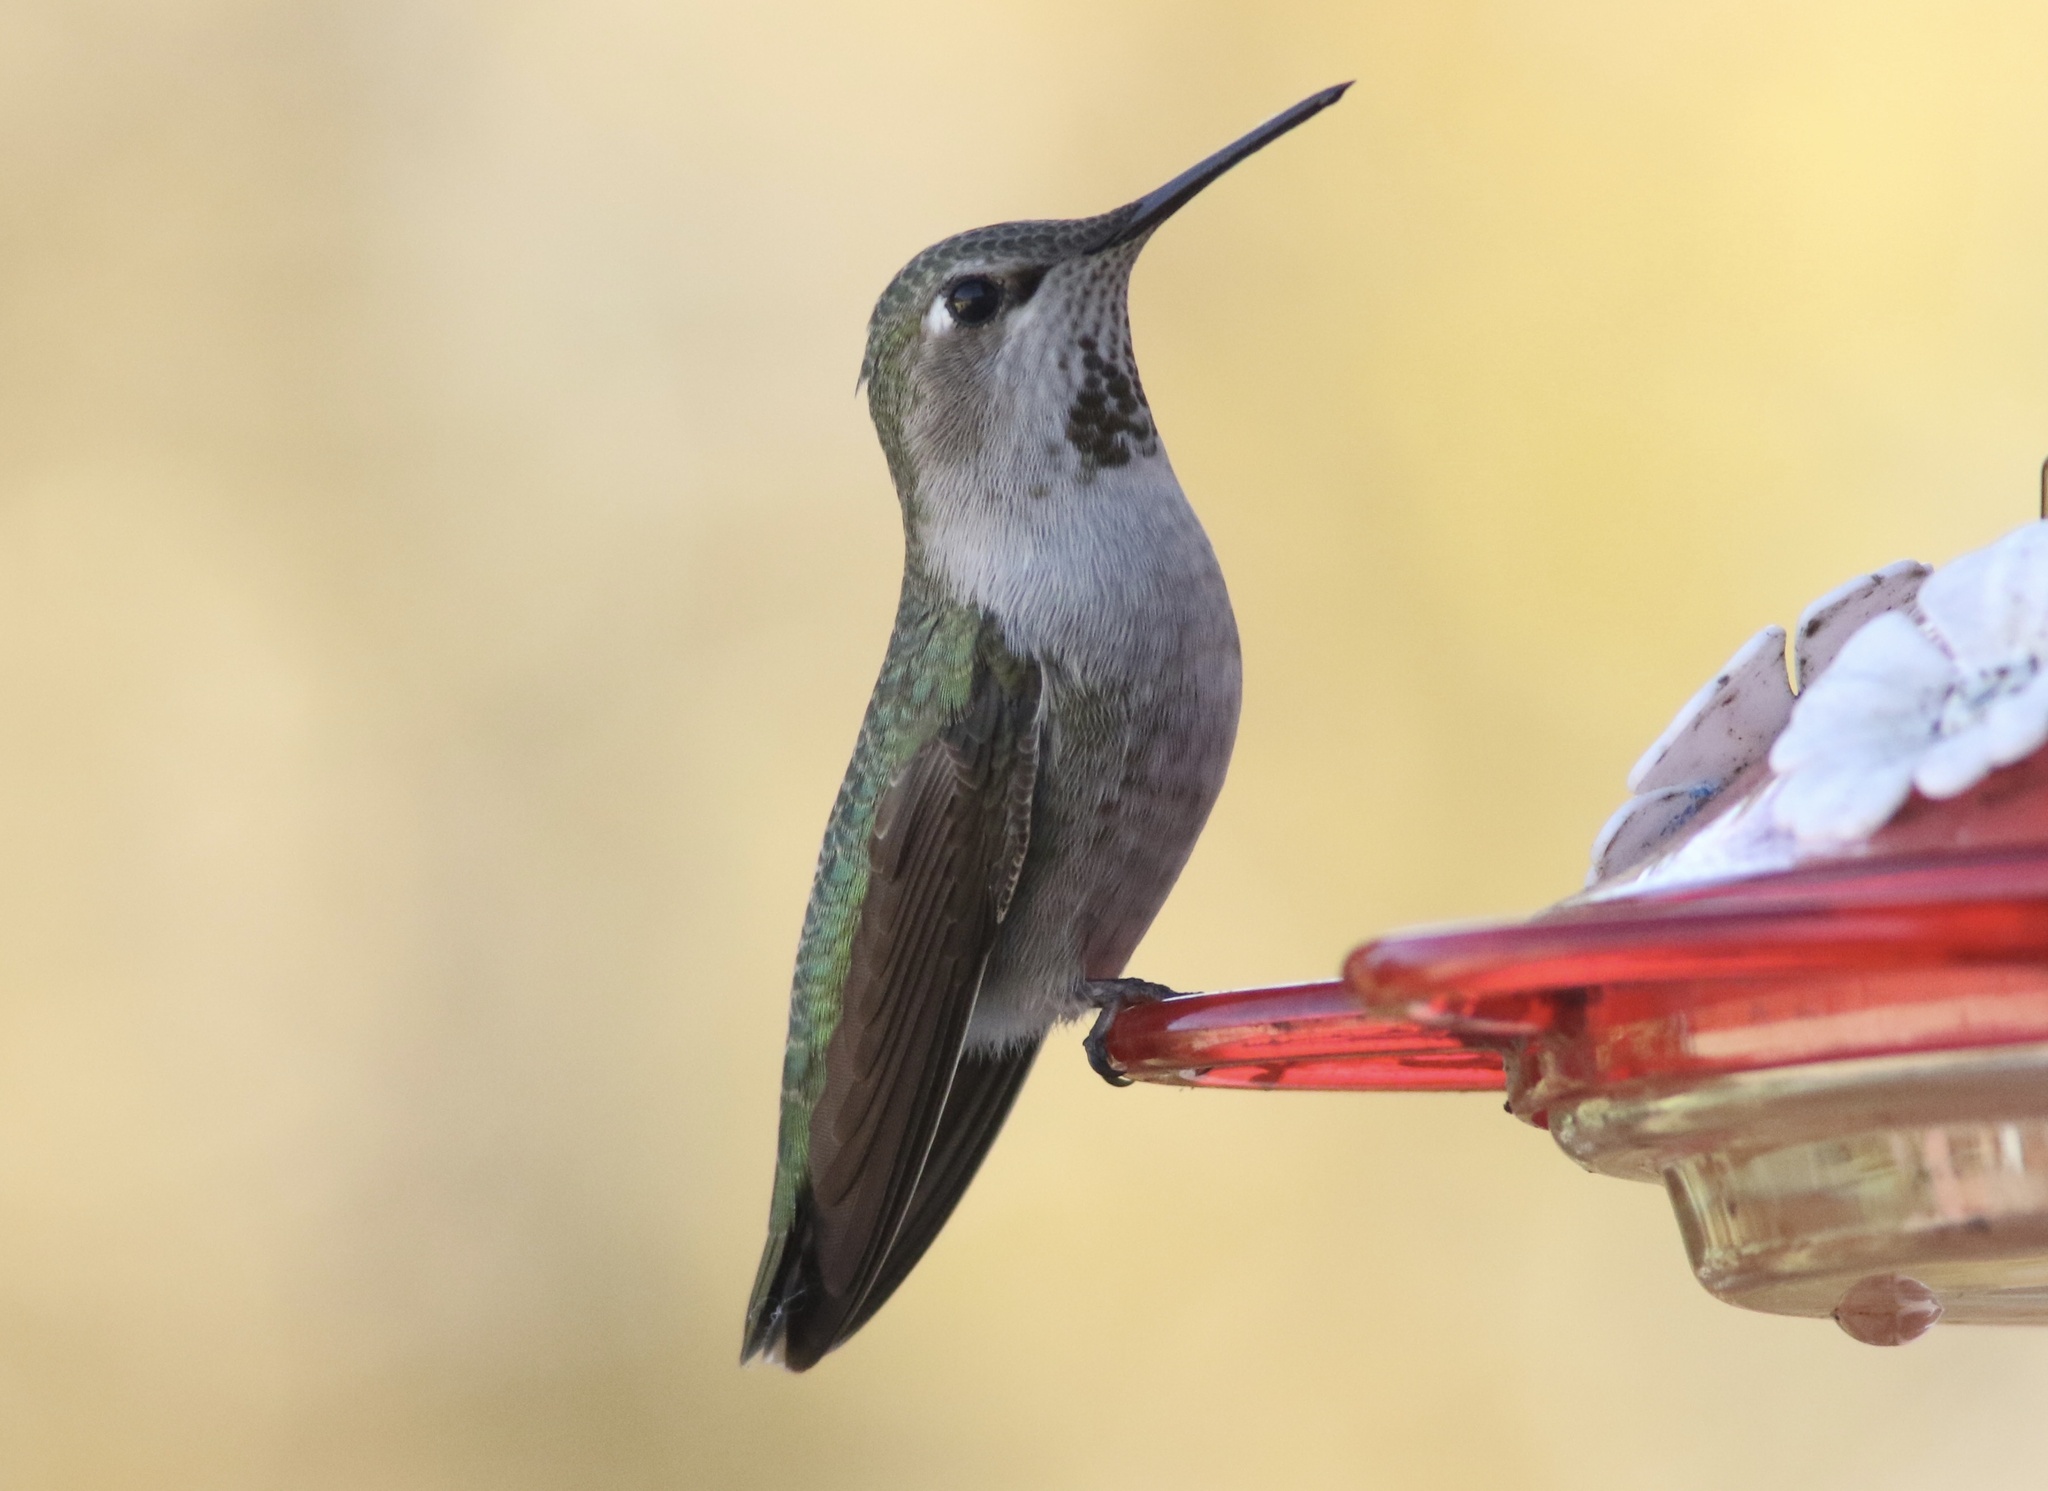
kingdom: Animalia
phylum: Chordata
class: Aves
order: Apodiformes
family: Trochilidae
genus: Calypte
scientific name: Calypte anna
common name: Anna's hummingbird
